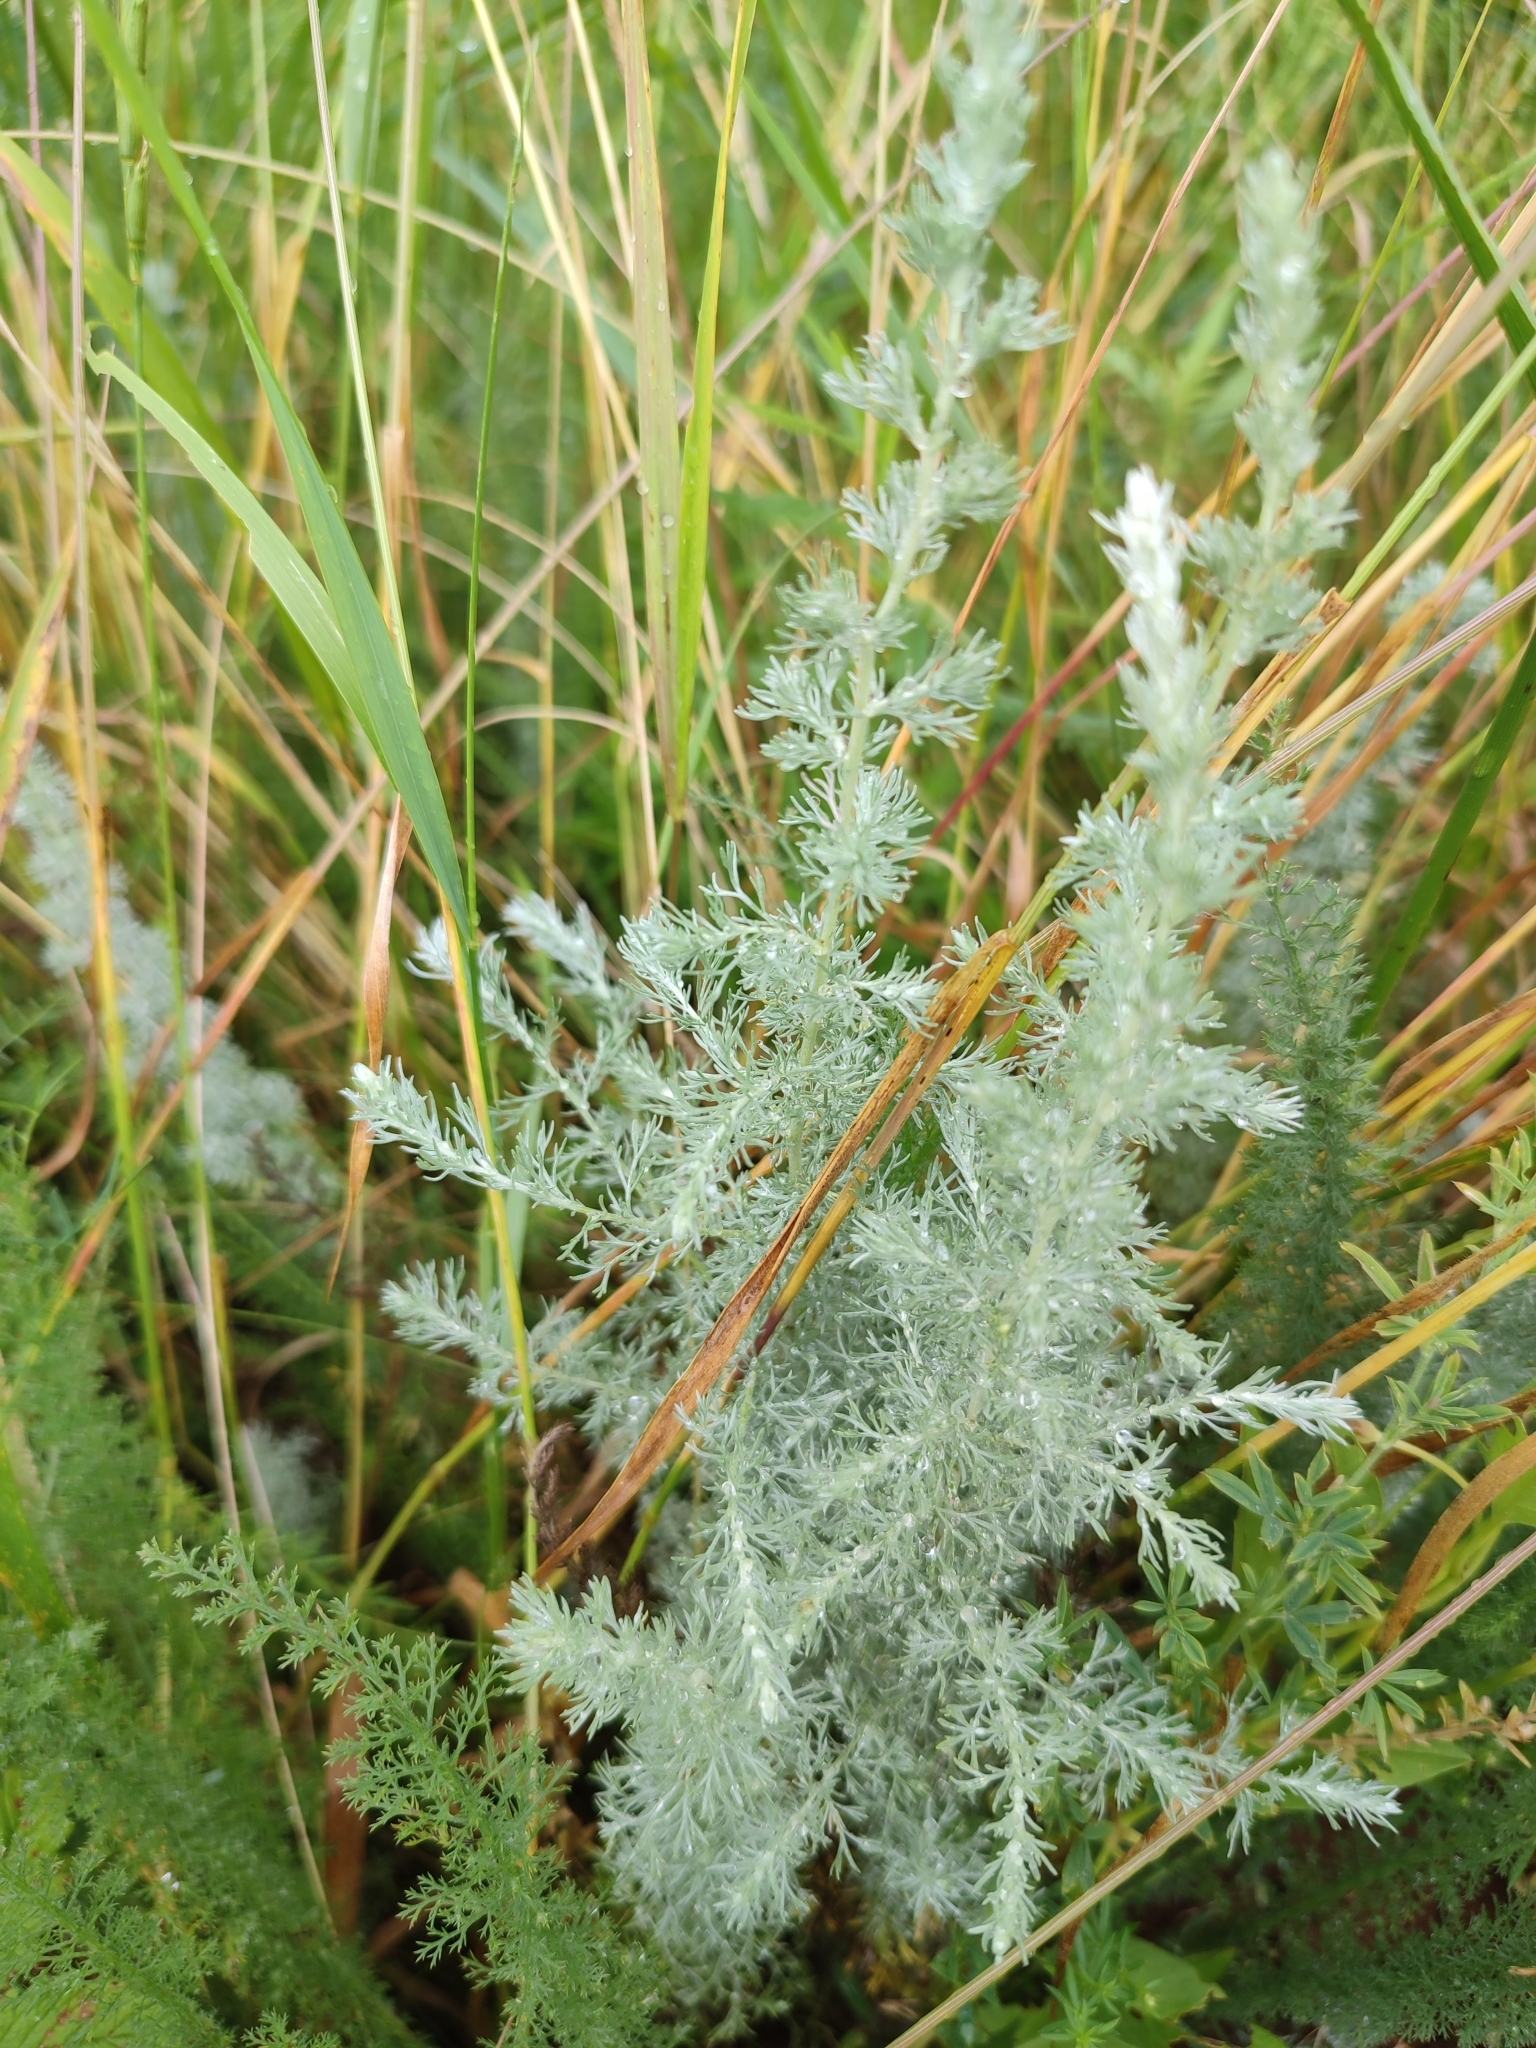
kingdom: Plantae
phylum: Tracheophyta
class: Magnoliopsida
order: Asterales
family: Asteraceae
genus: Artemisia
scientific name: Artemisia austriaca
